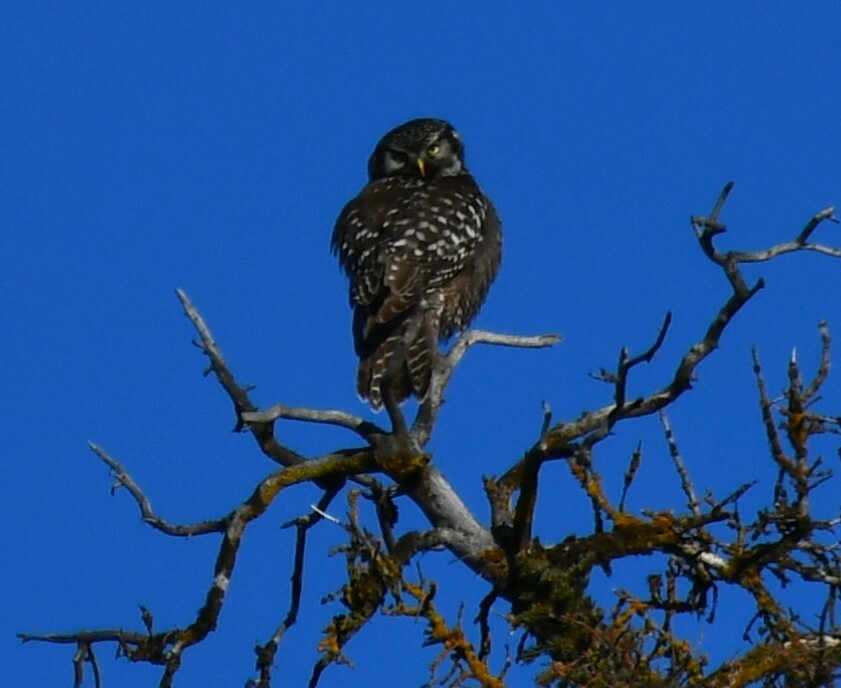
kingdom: Animalia
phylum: Chordata
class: Aves
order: Strigiformes
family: Strigidae
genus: Surnia
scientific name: Surnia ulula
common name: Northern hawk-owl
